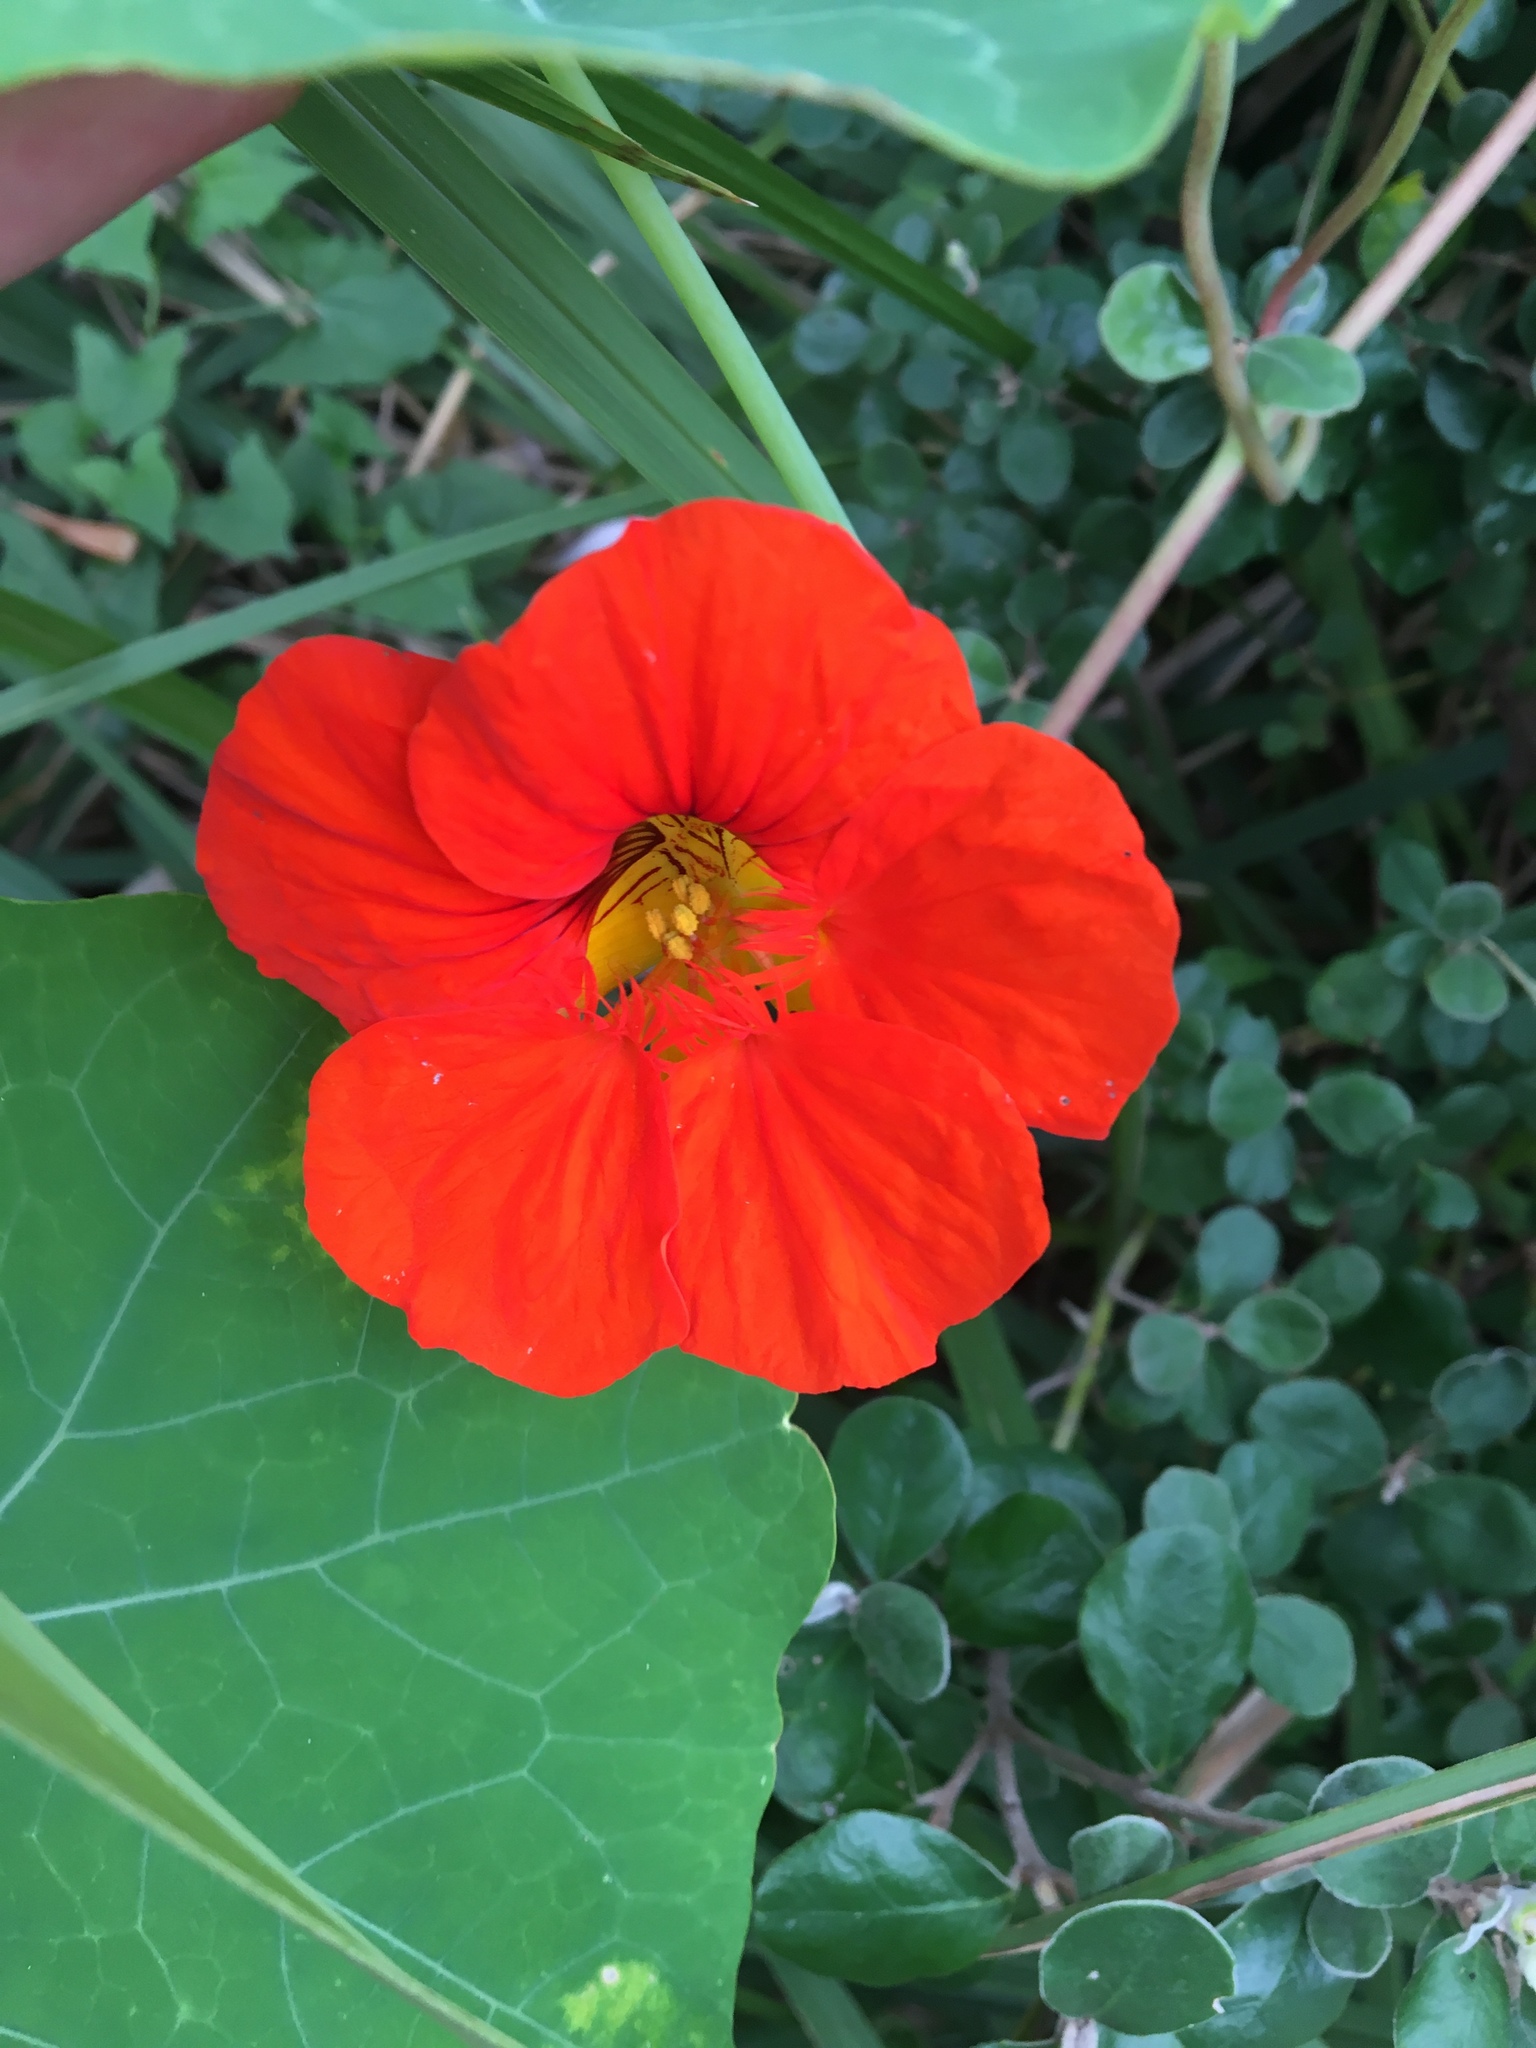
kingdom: Plantae
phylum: Tracheophyta
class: Magnoliopsida
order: Brassicales
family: Tropaeolaceae
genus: Tropaeolum
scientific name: Tropaeolum majus
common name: Nasturtium
